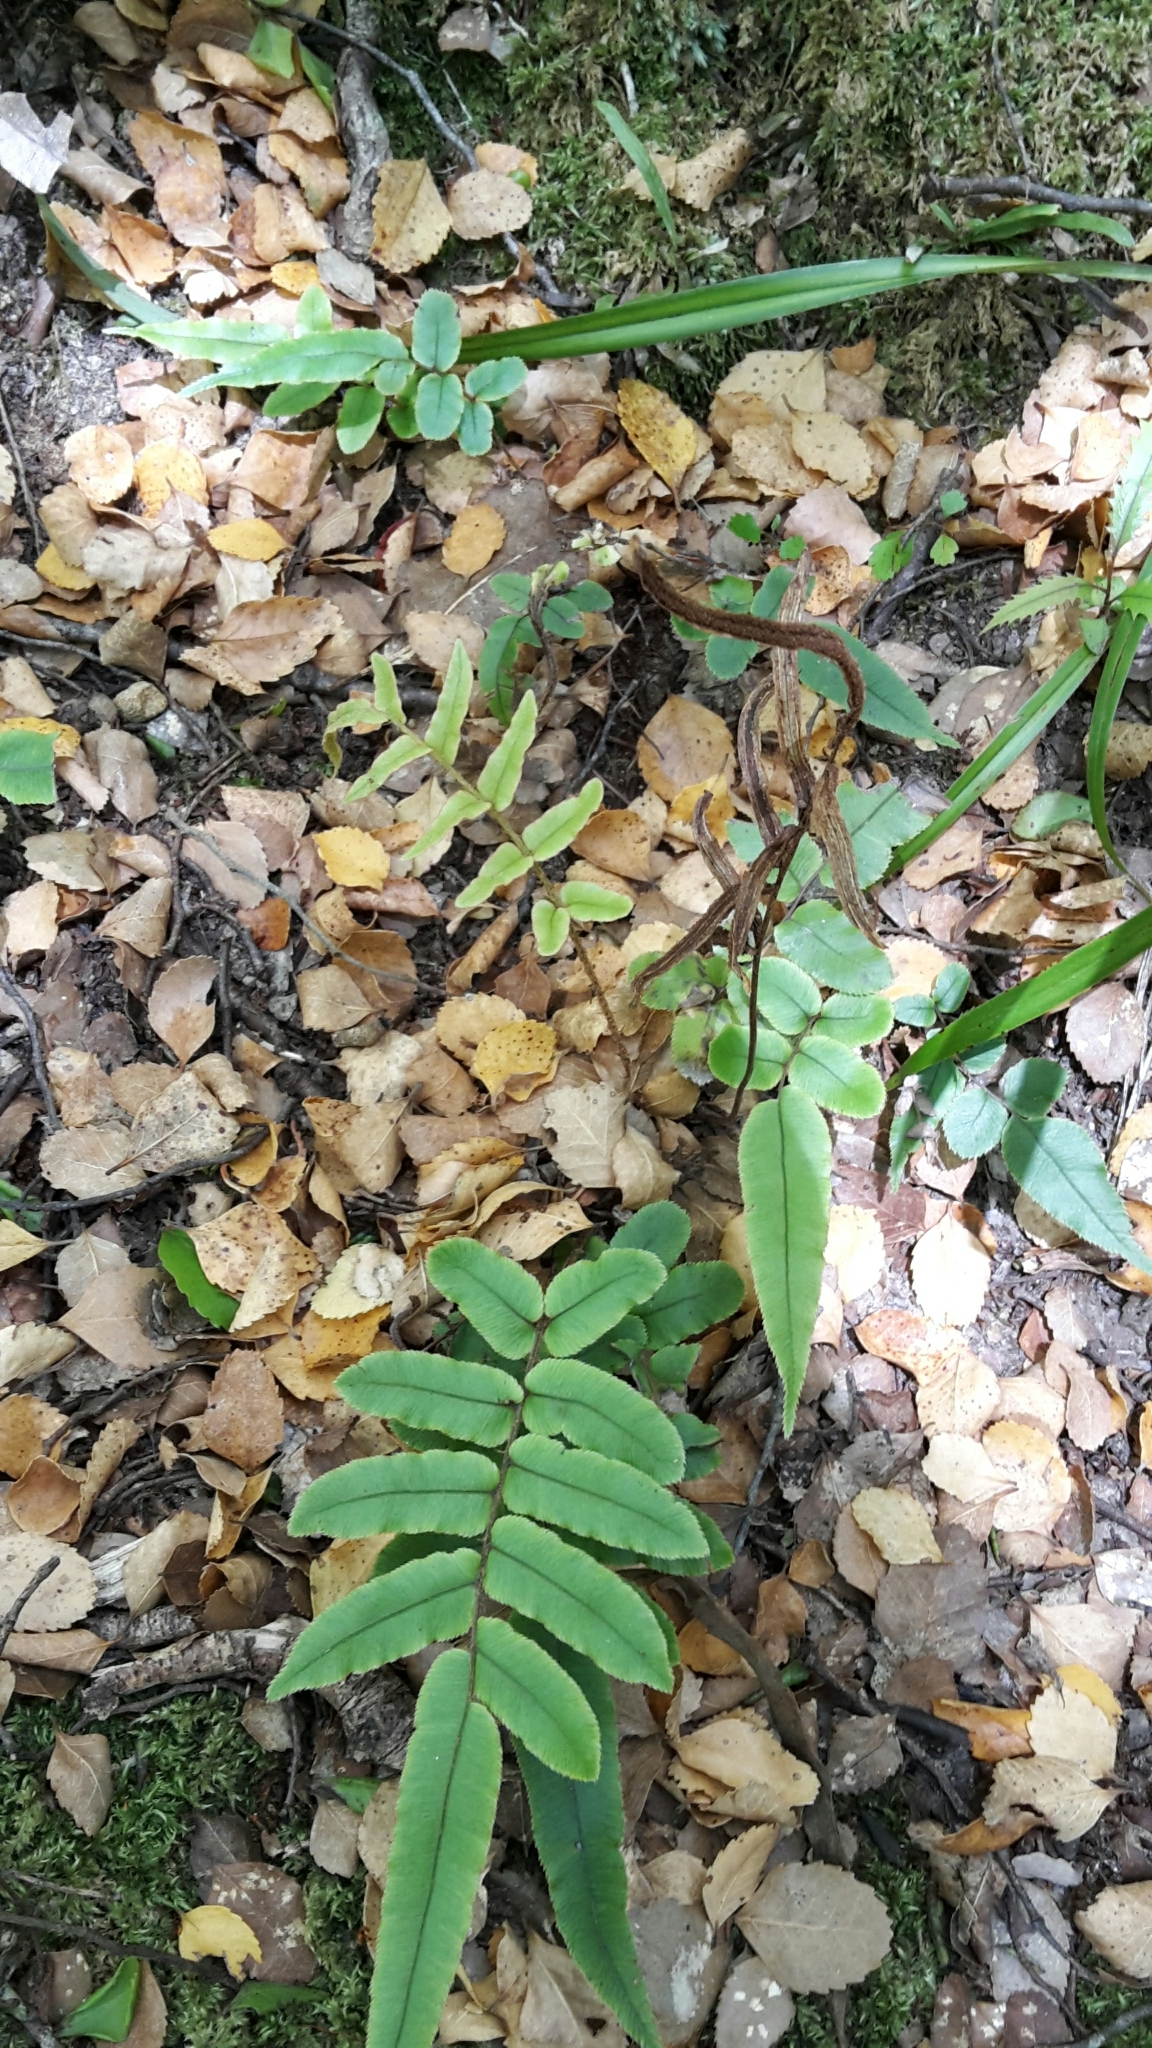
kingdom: Plantae
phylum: Tracheophyta
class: Polypodiopsida
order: Polypodiales
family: Blechnaceae
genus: Parablechnum
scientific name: Parablechnum procerum
